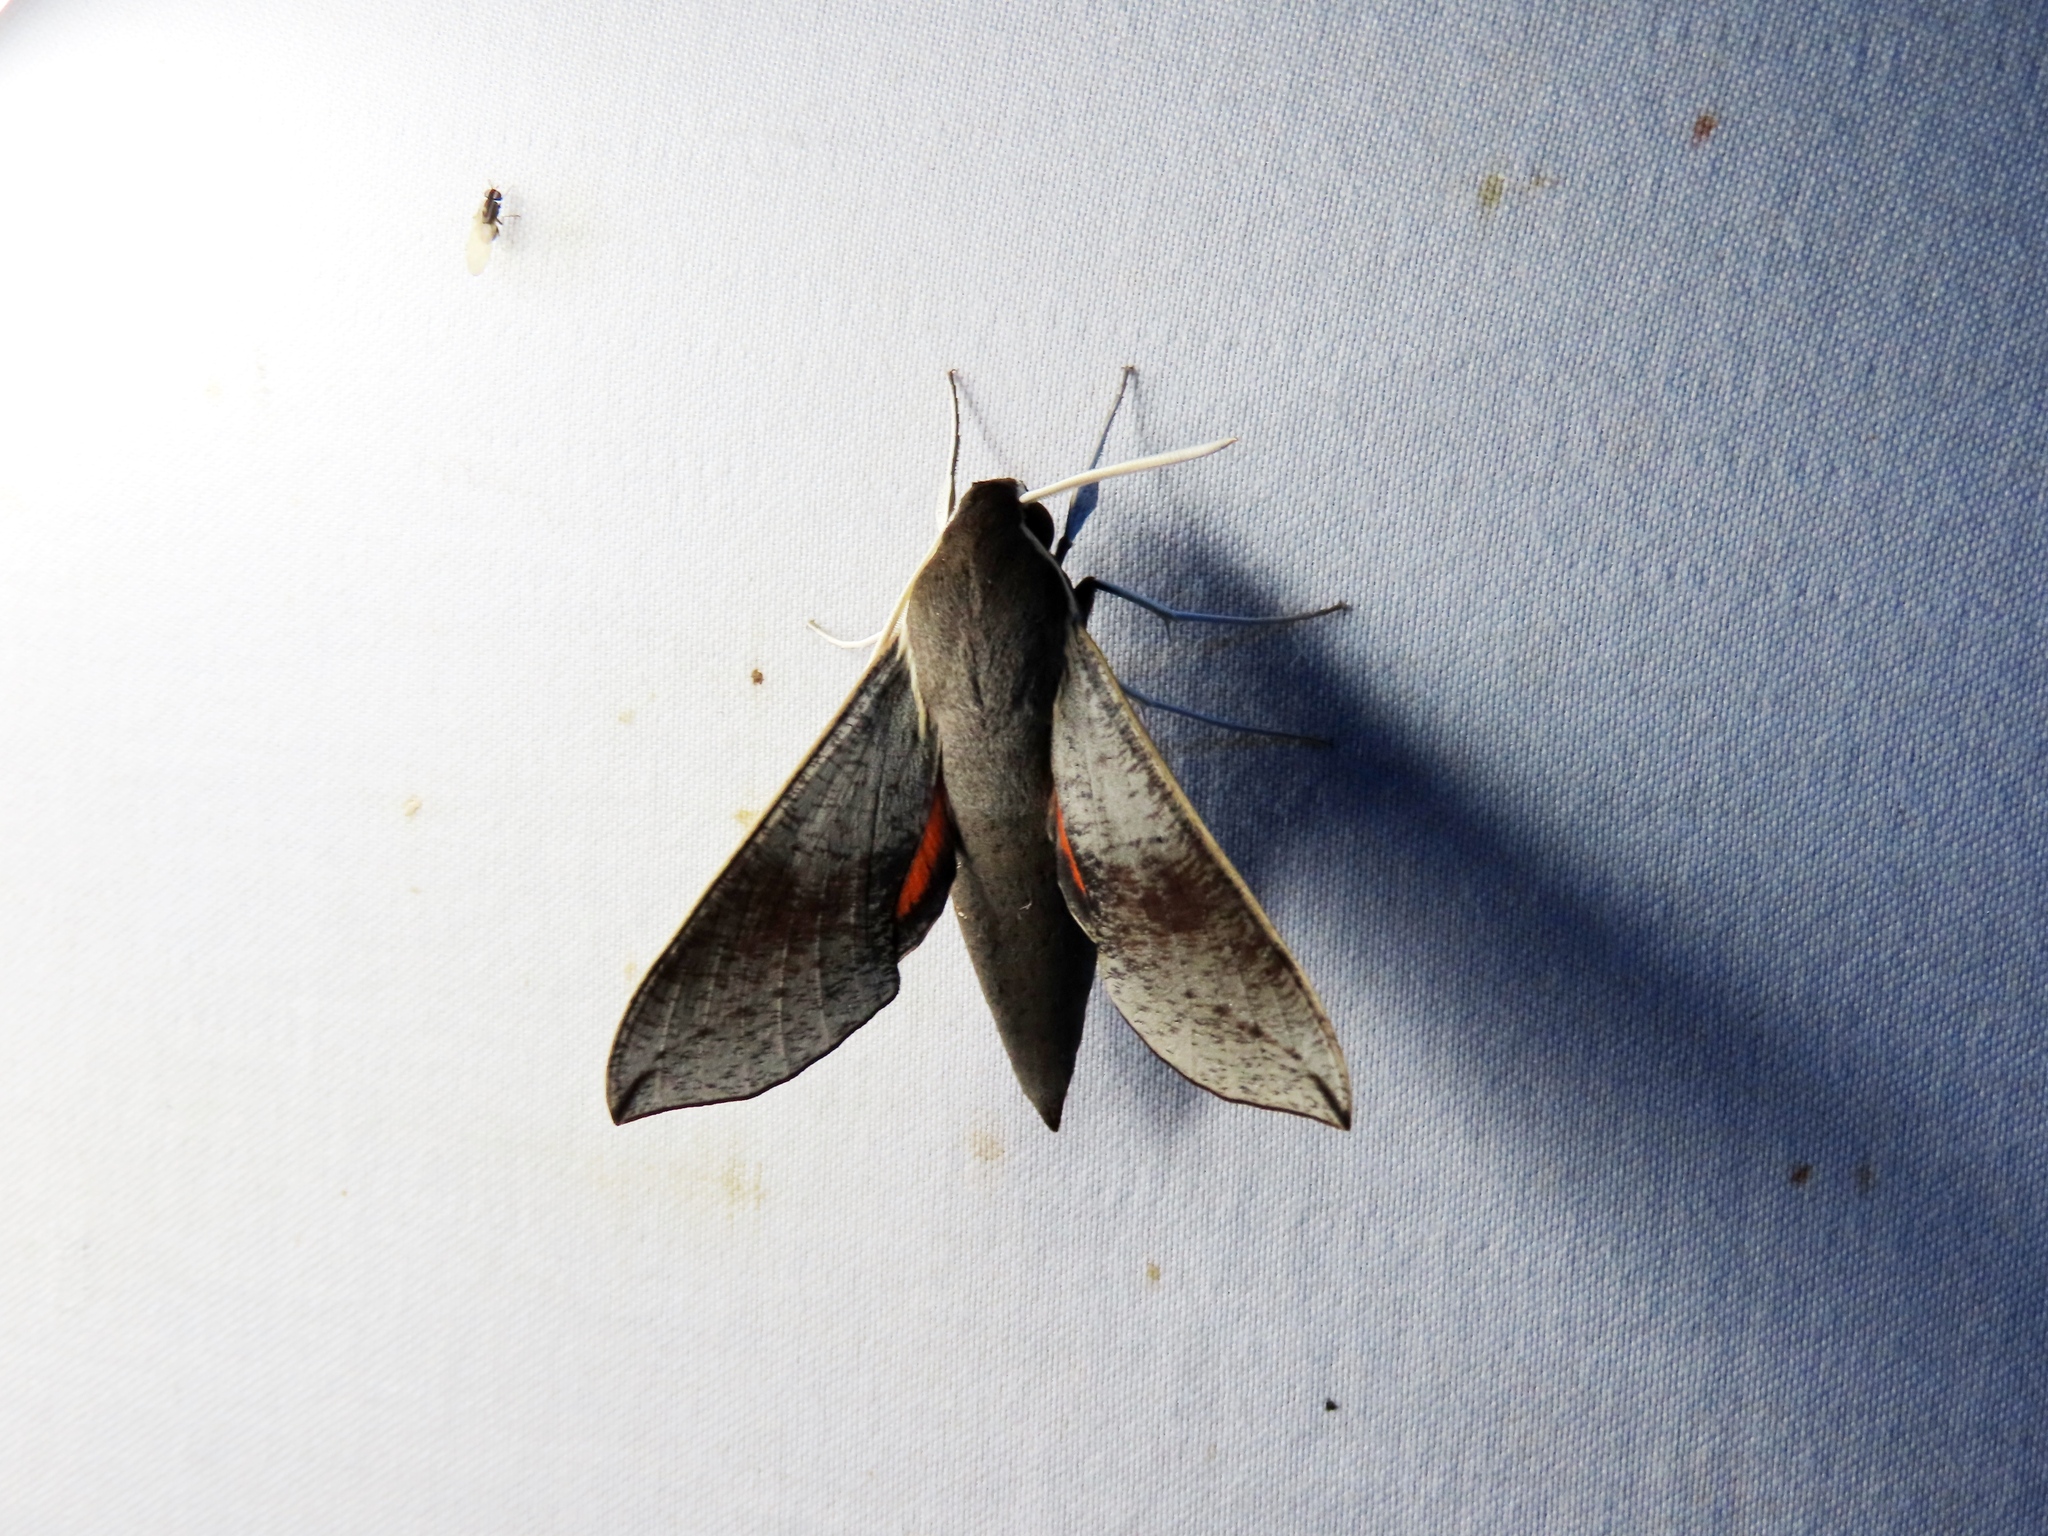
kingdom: Animalia
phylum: Arthropoda
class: Insecta
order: Lepidoptera
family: Sphingidae
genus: Hippotion
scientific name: Hippotion scrofa
